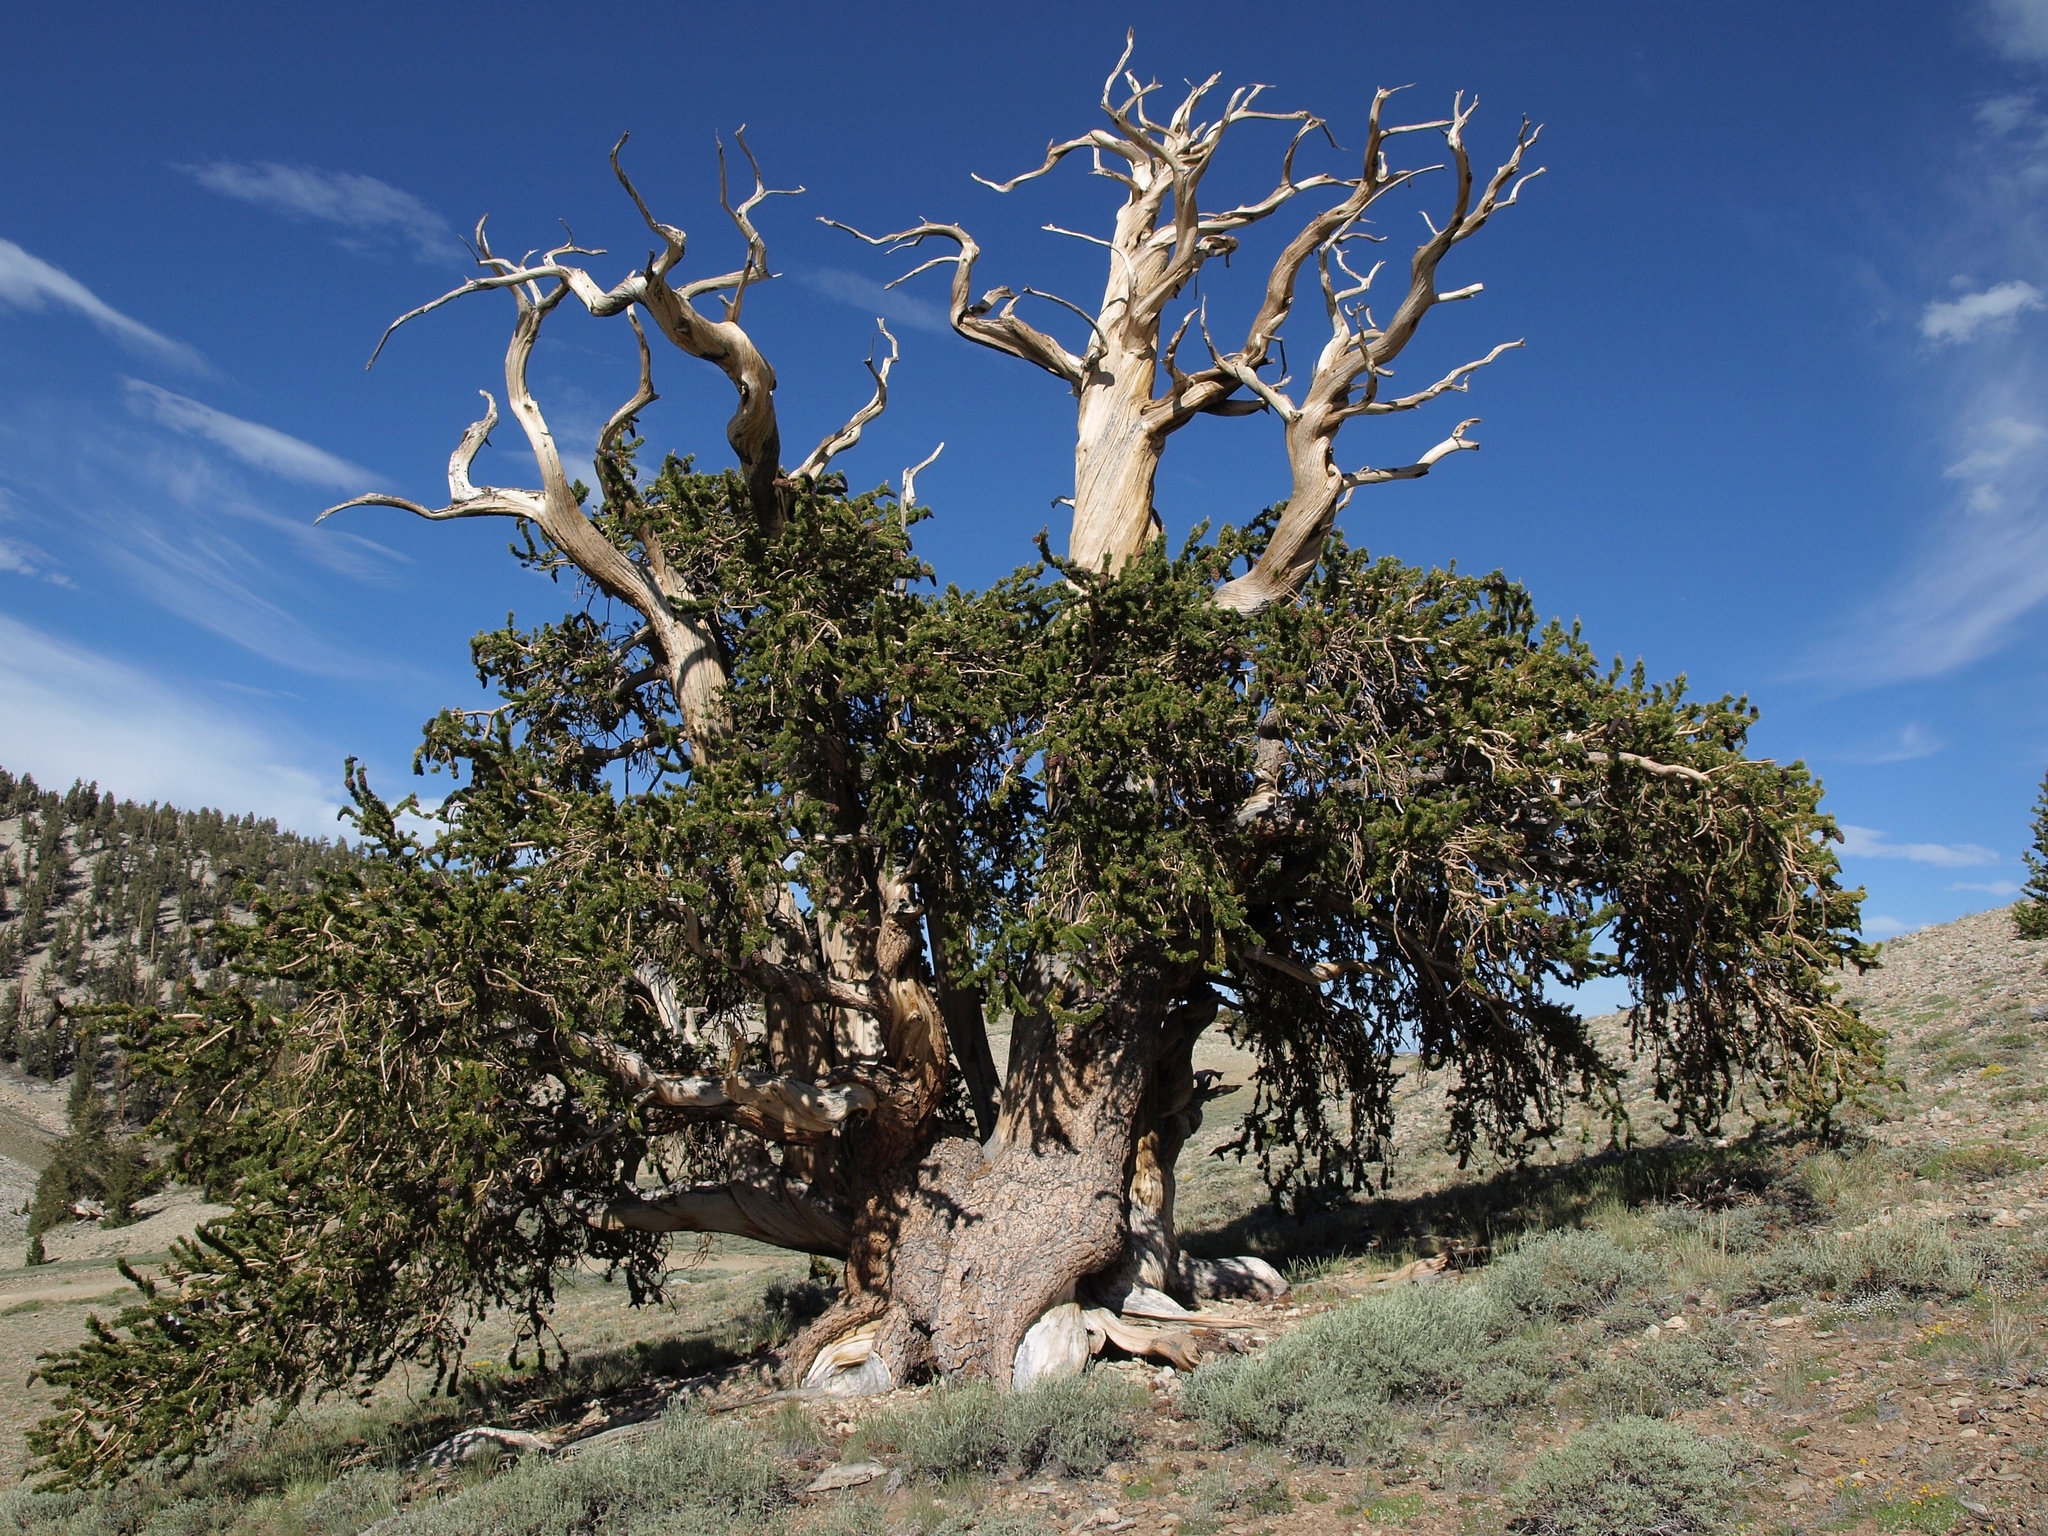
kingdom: Plantae
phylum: Tracheophyta
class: Pinopsida
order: Pinales
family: Pinaceae
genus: Pinus
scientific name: Pinus longaeva
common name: Intermountain bristlecone pine
